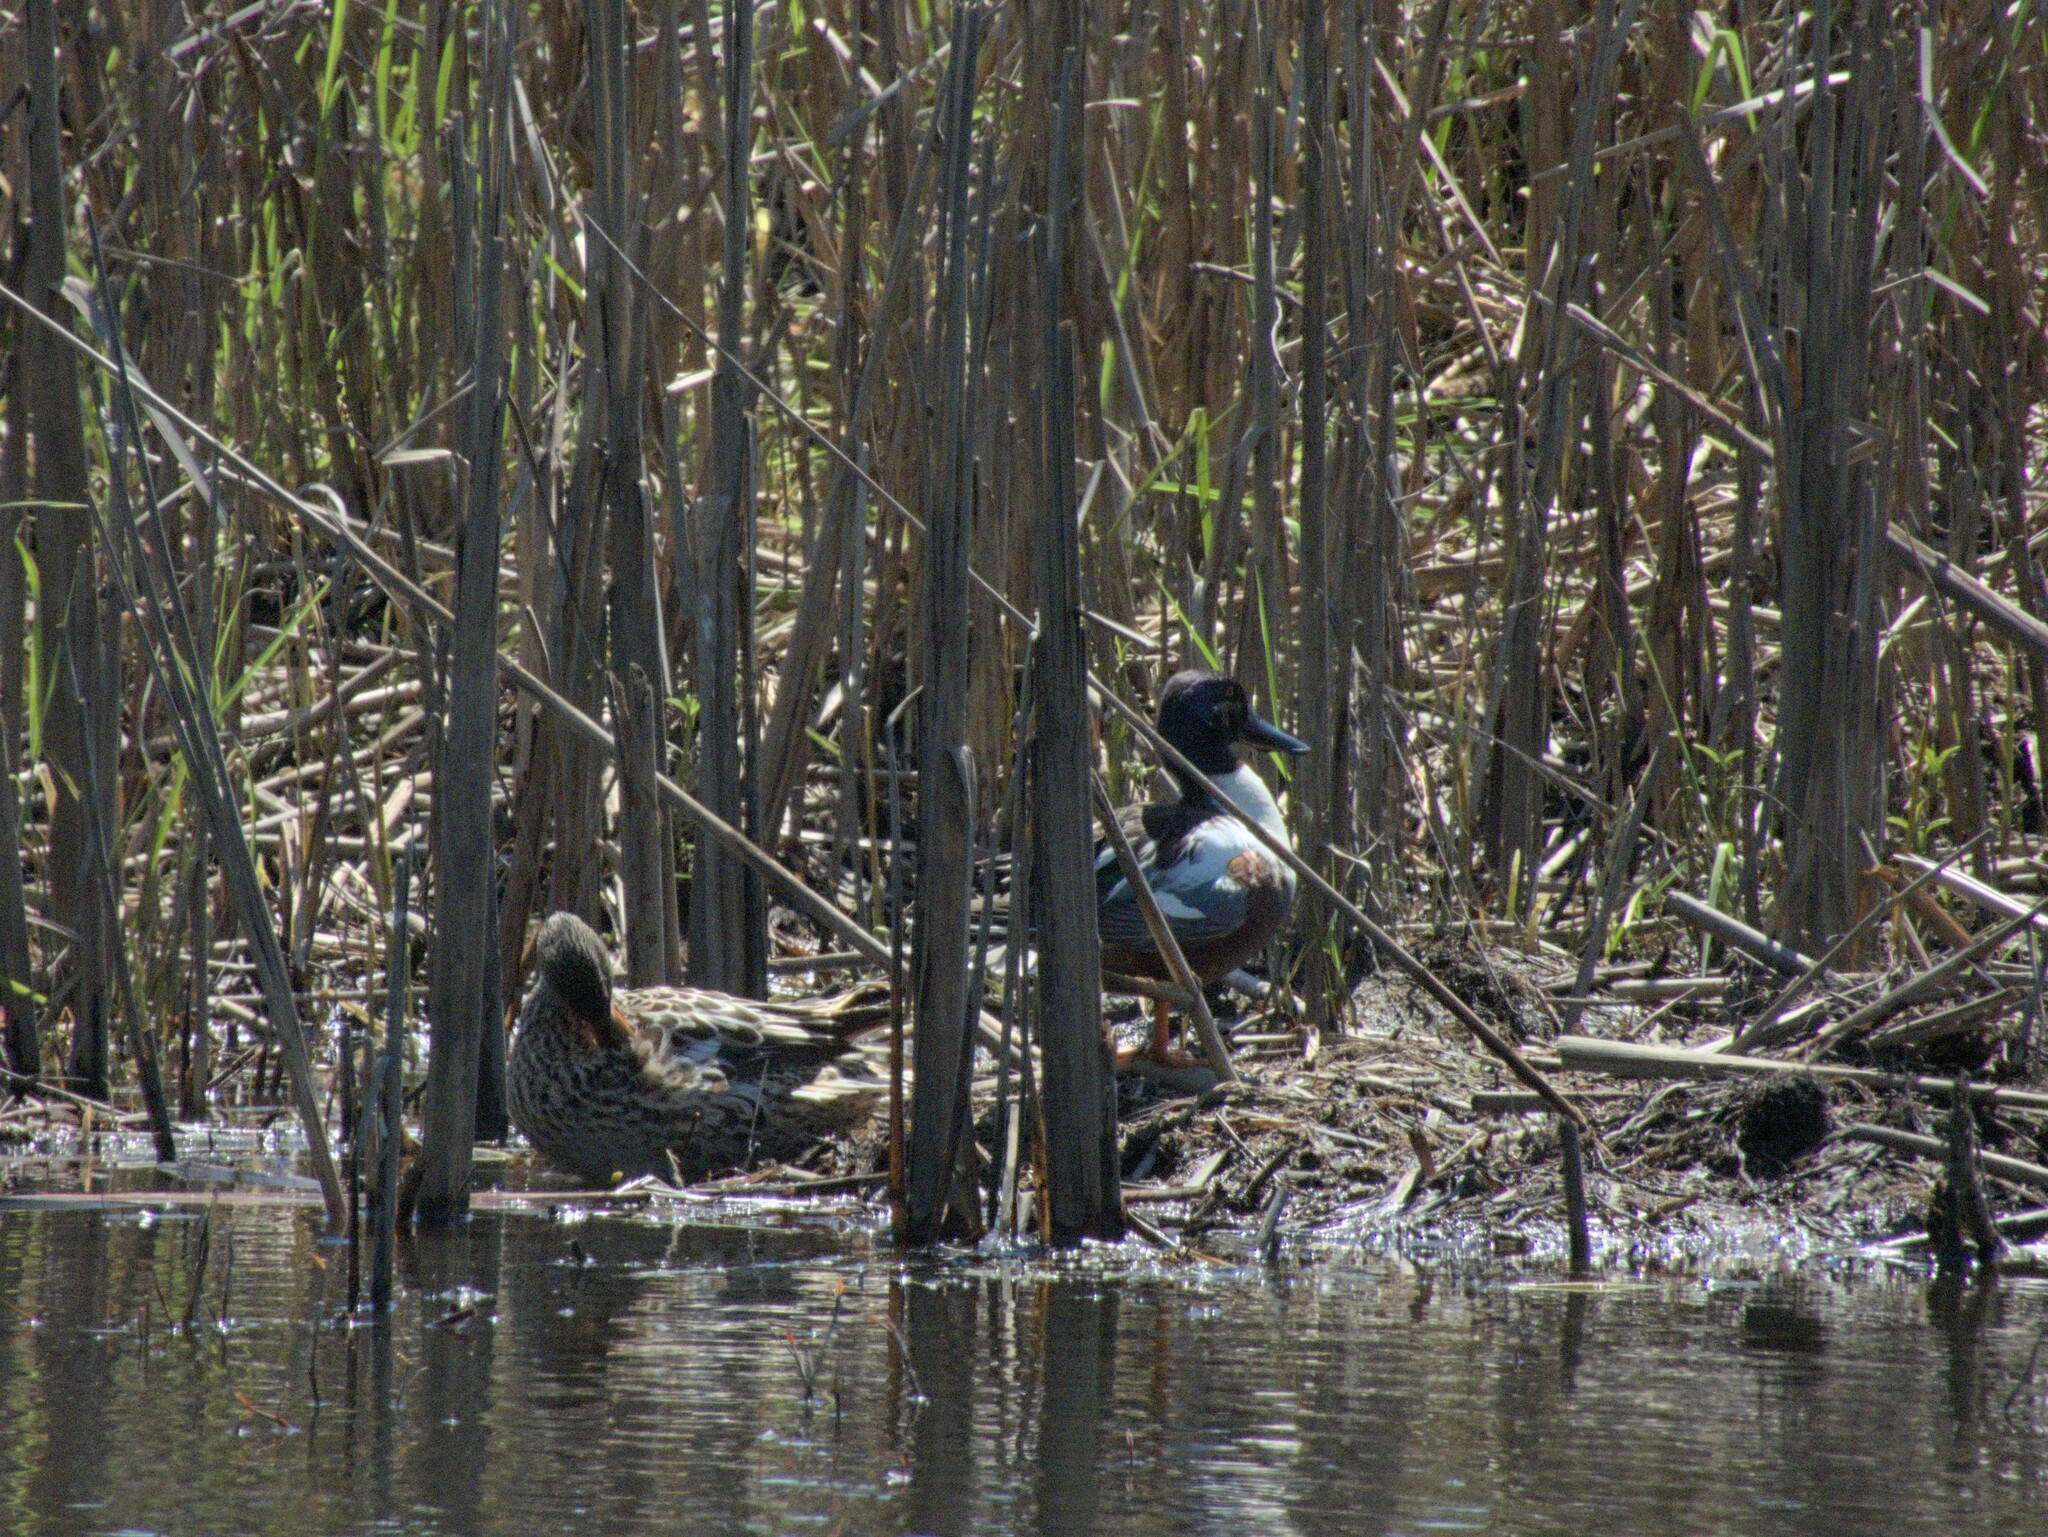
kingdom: Animalia
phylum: Chordata
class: Aves
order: Anseriformes
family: Anatidae
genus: Spatula
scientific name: Spatula clypeata
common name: Northern shoveler
